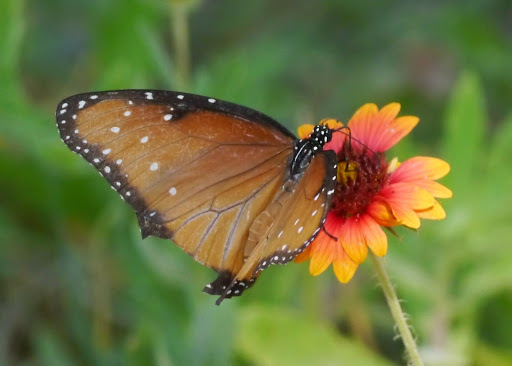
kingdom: Animalia
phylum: Arthropoda
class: Insecta
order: Lepidoptera
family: Nymphalidae
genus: Danaus
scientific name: Danaus gilippus
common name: Queen
